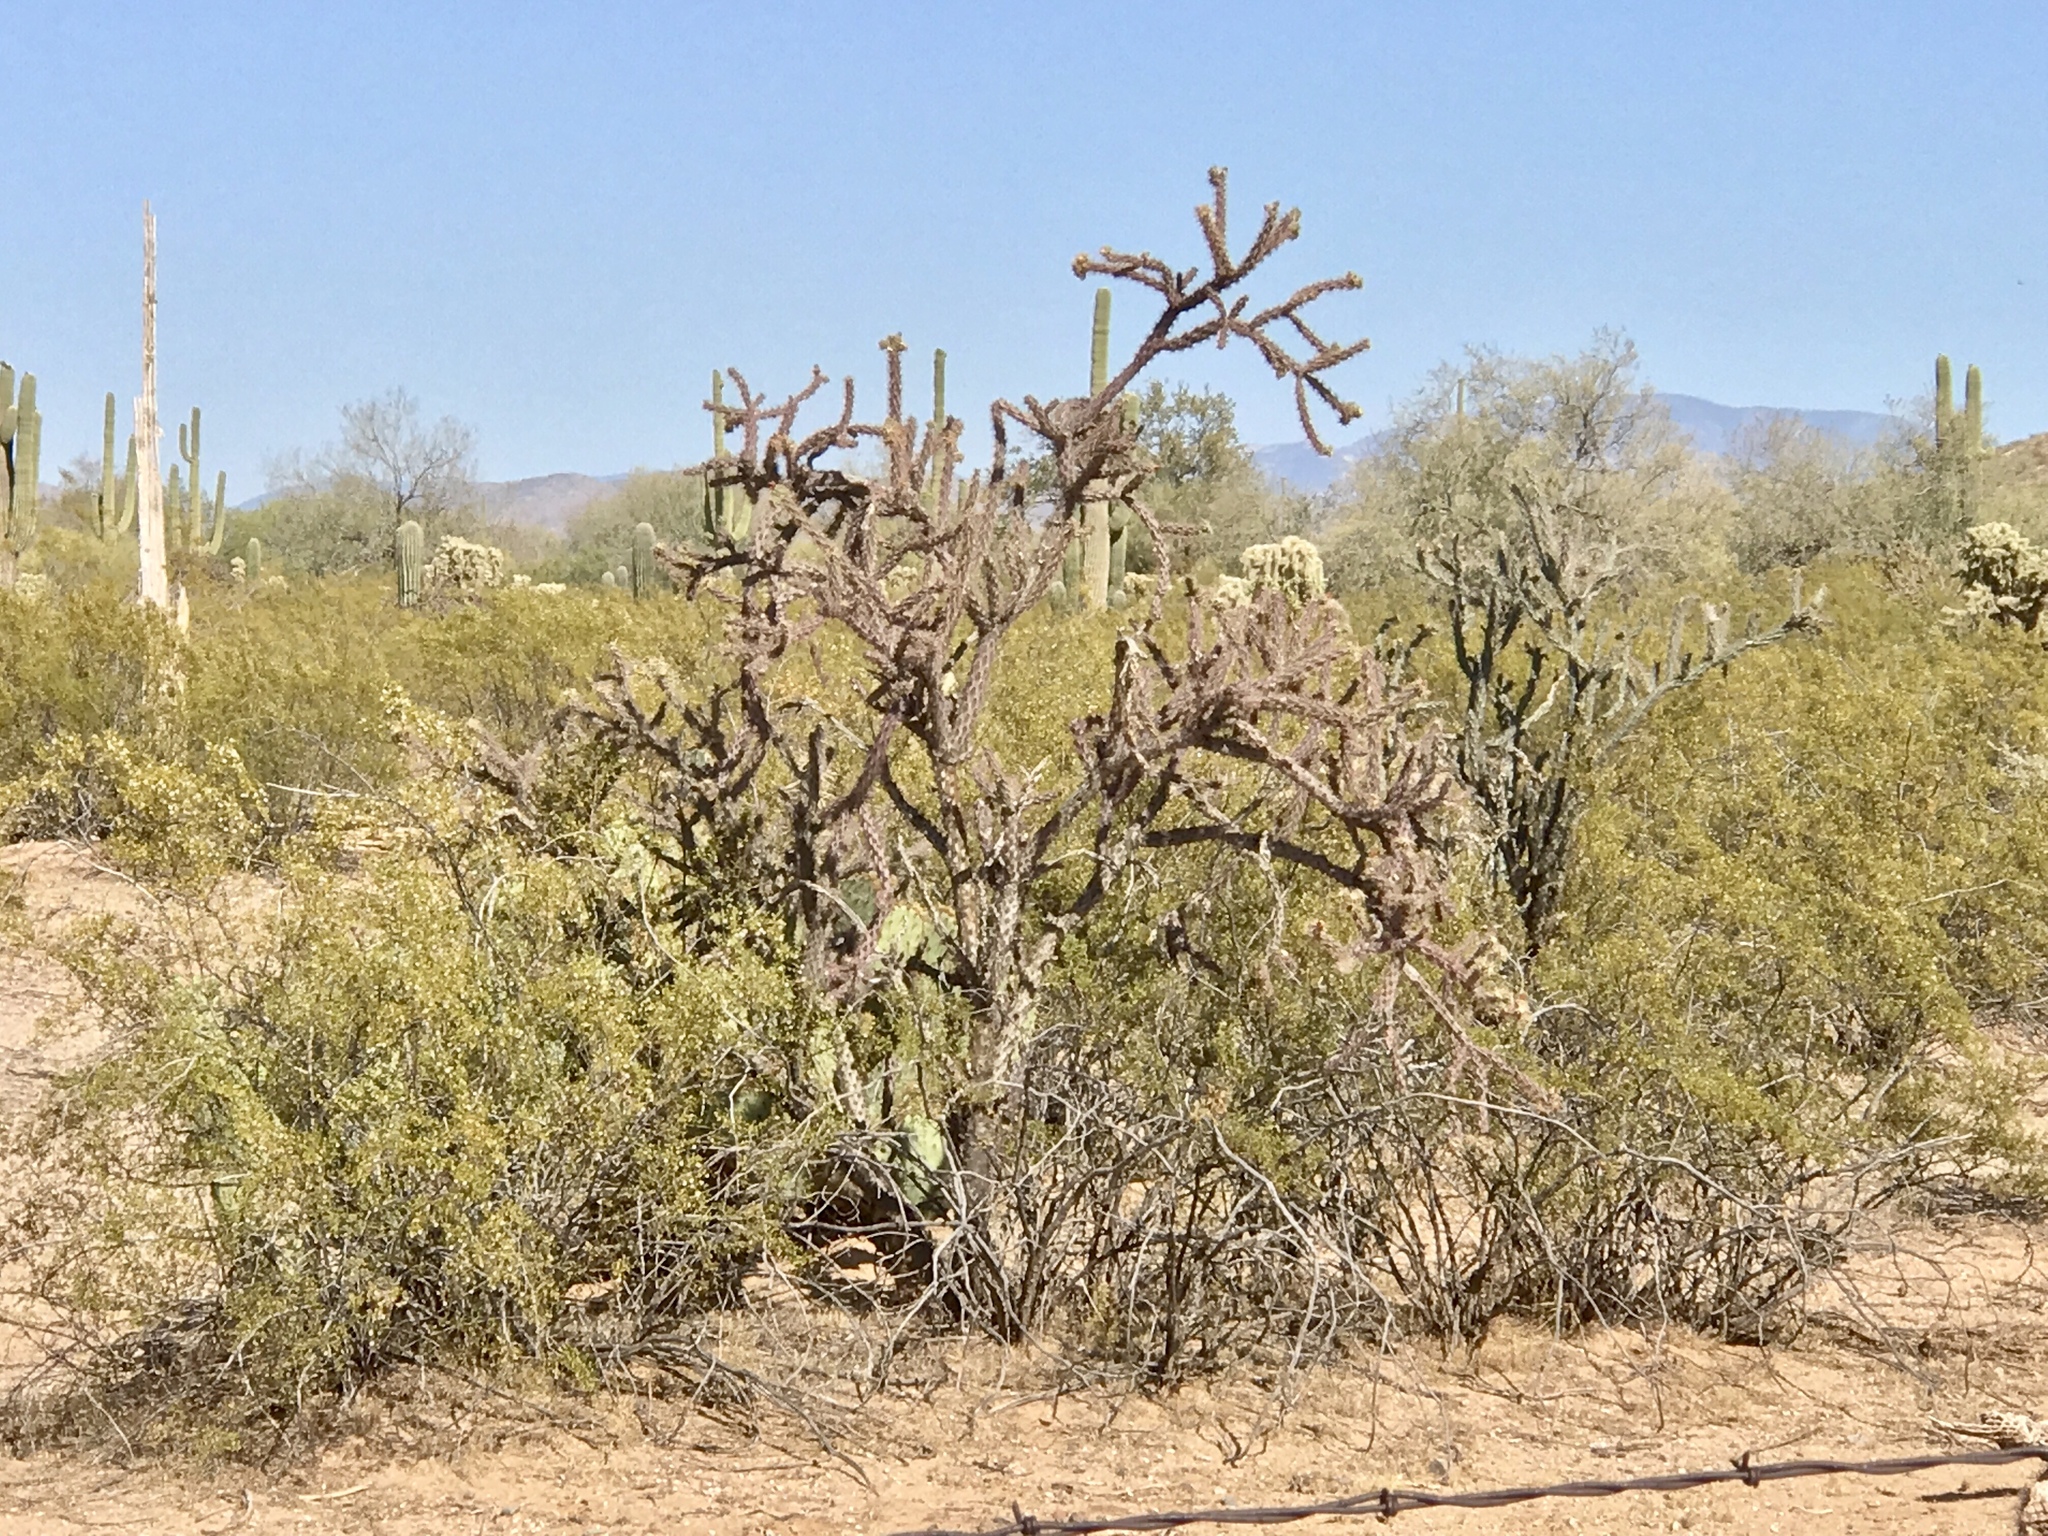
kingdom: Plantae
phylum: Tracheophyta
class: Magnoliopsida
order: Zygophyllales
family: Zygophyllaceae
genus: Larrea
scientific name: Larrea tridentata
